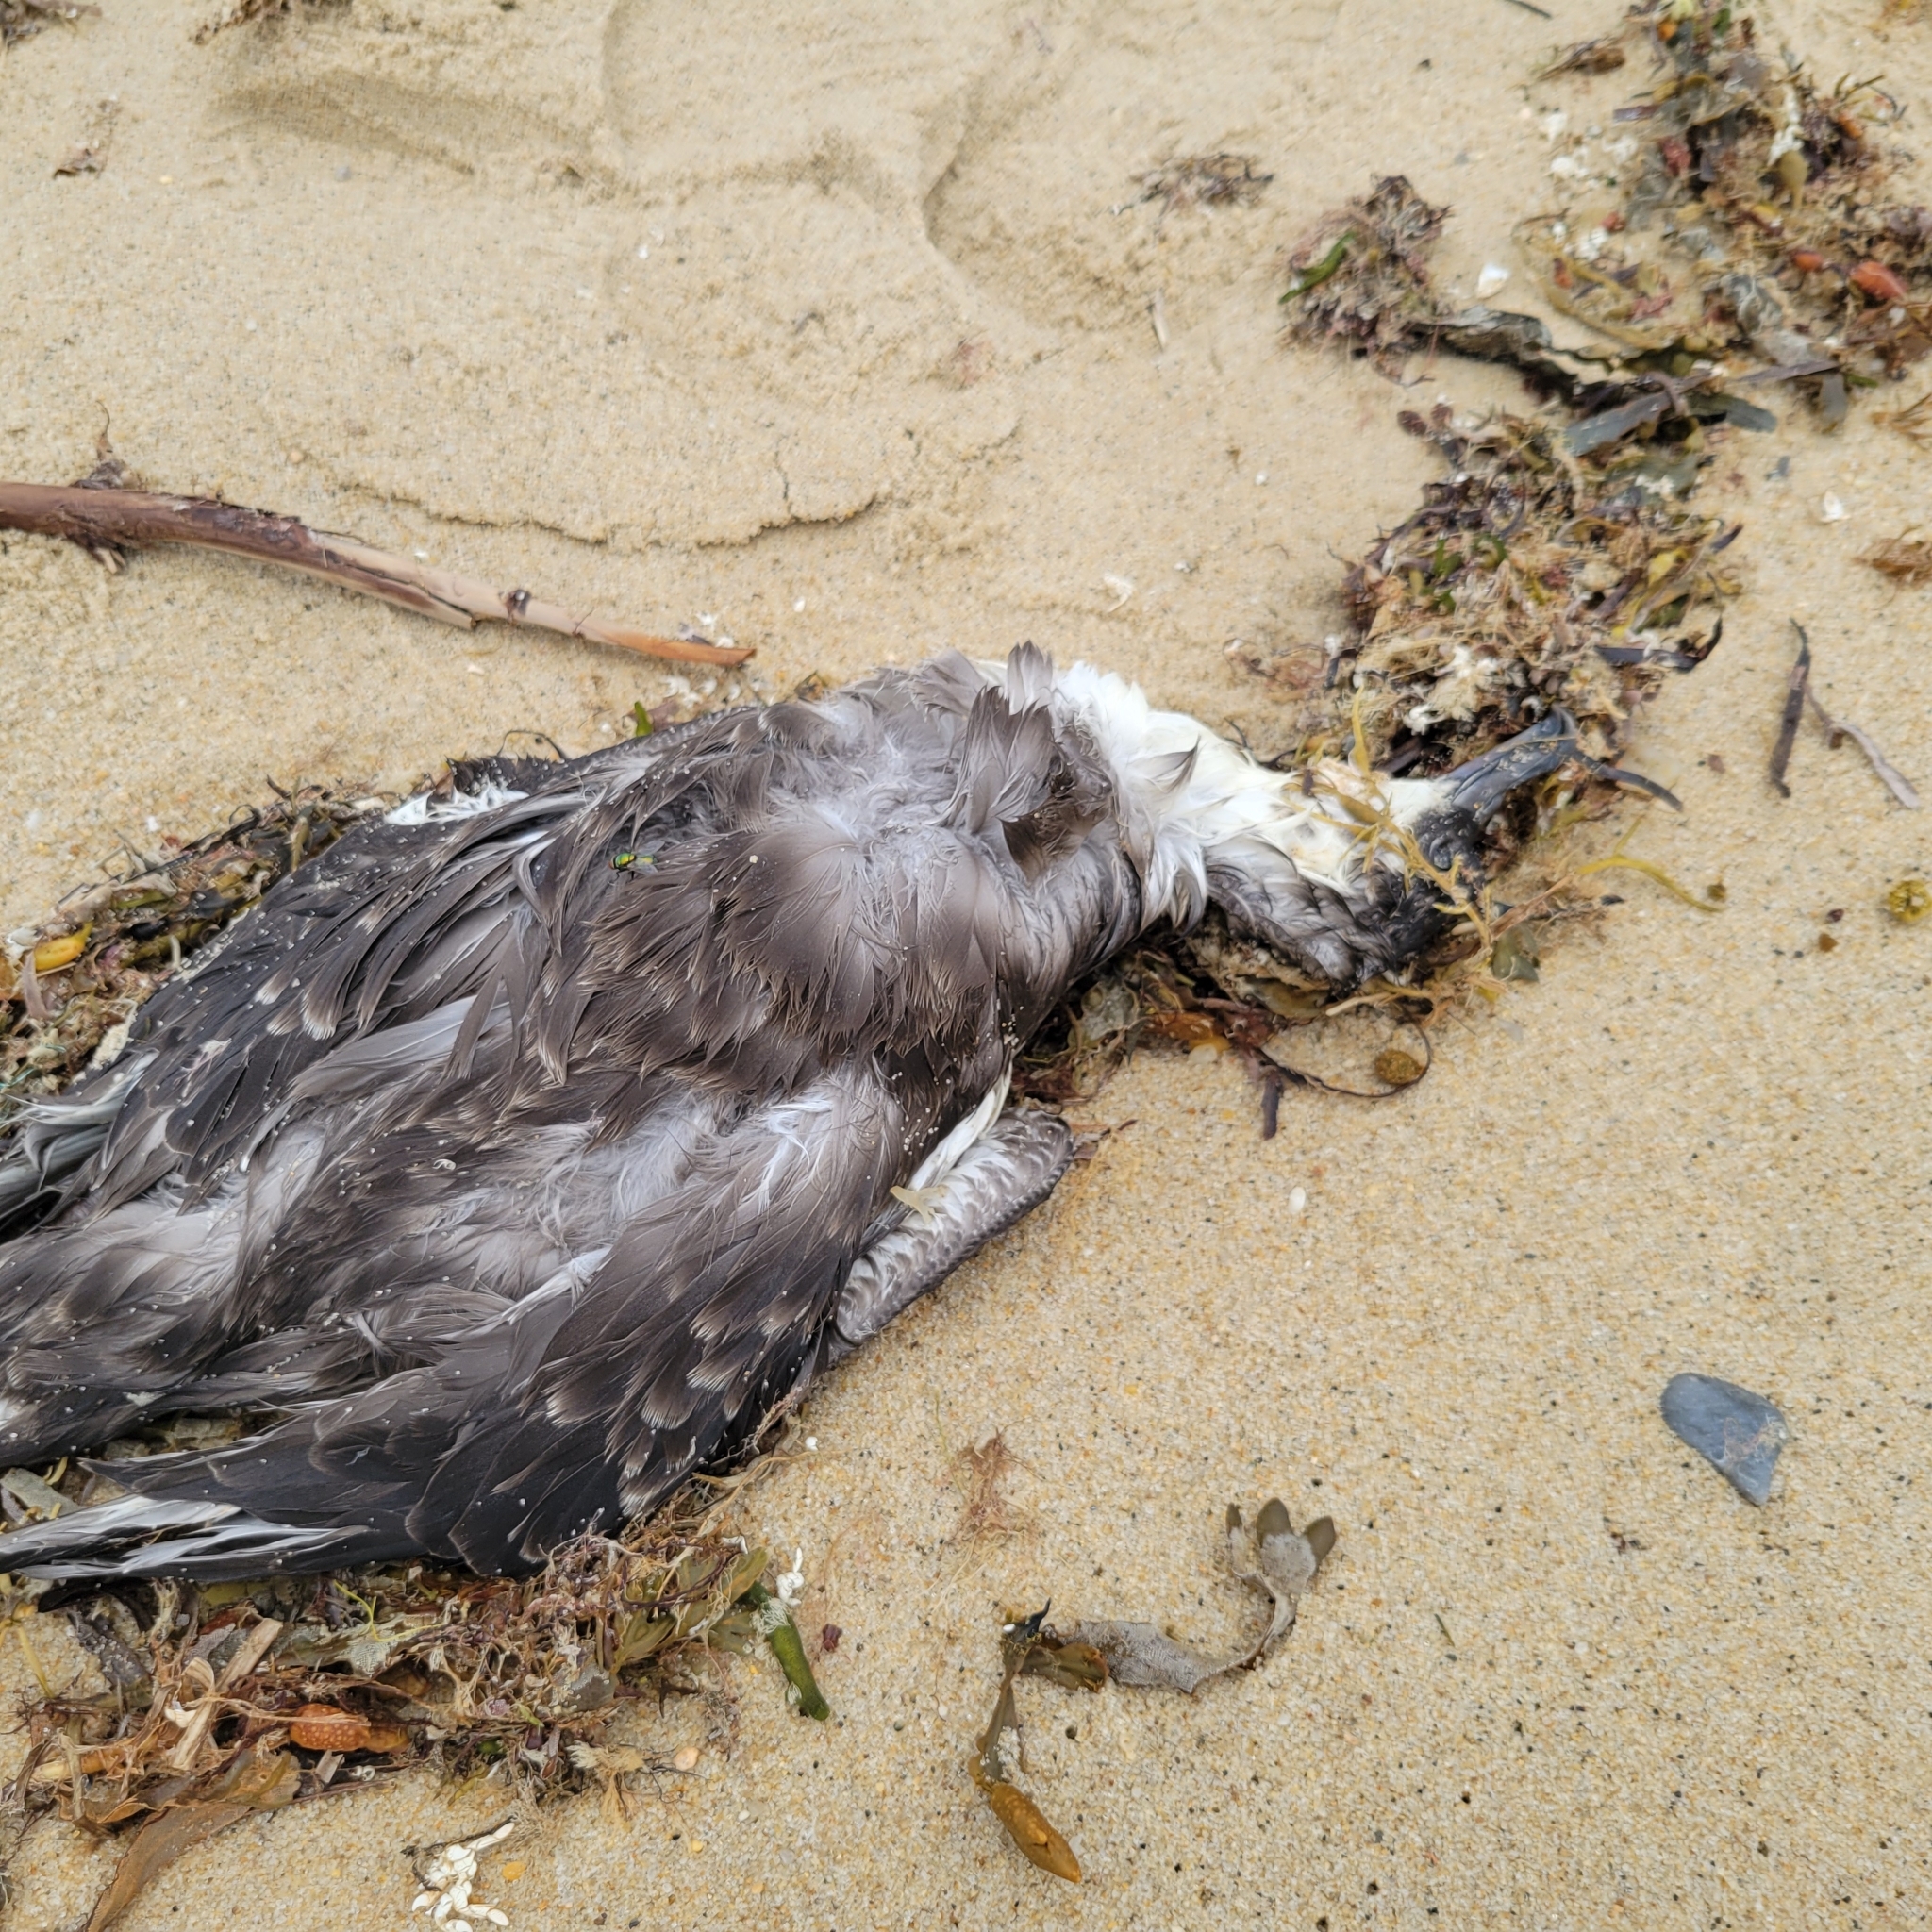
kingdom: Animalia
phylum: Chordata
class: Aves
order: Procellariiformes
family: Procellariidae
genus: Puffinus
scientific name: Puffinus gravis
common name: Great shearwater
